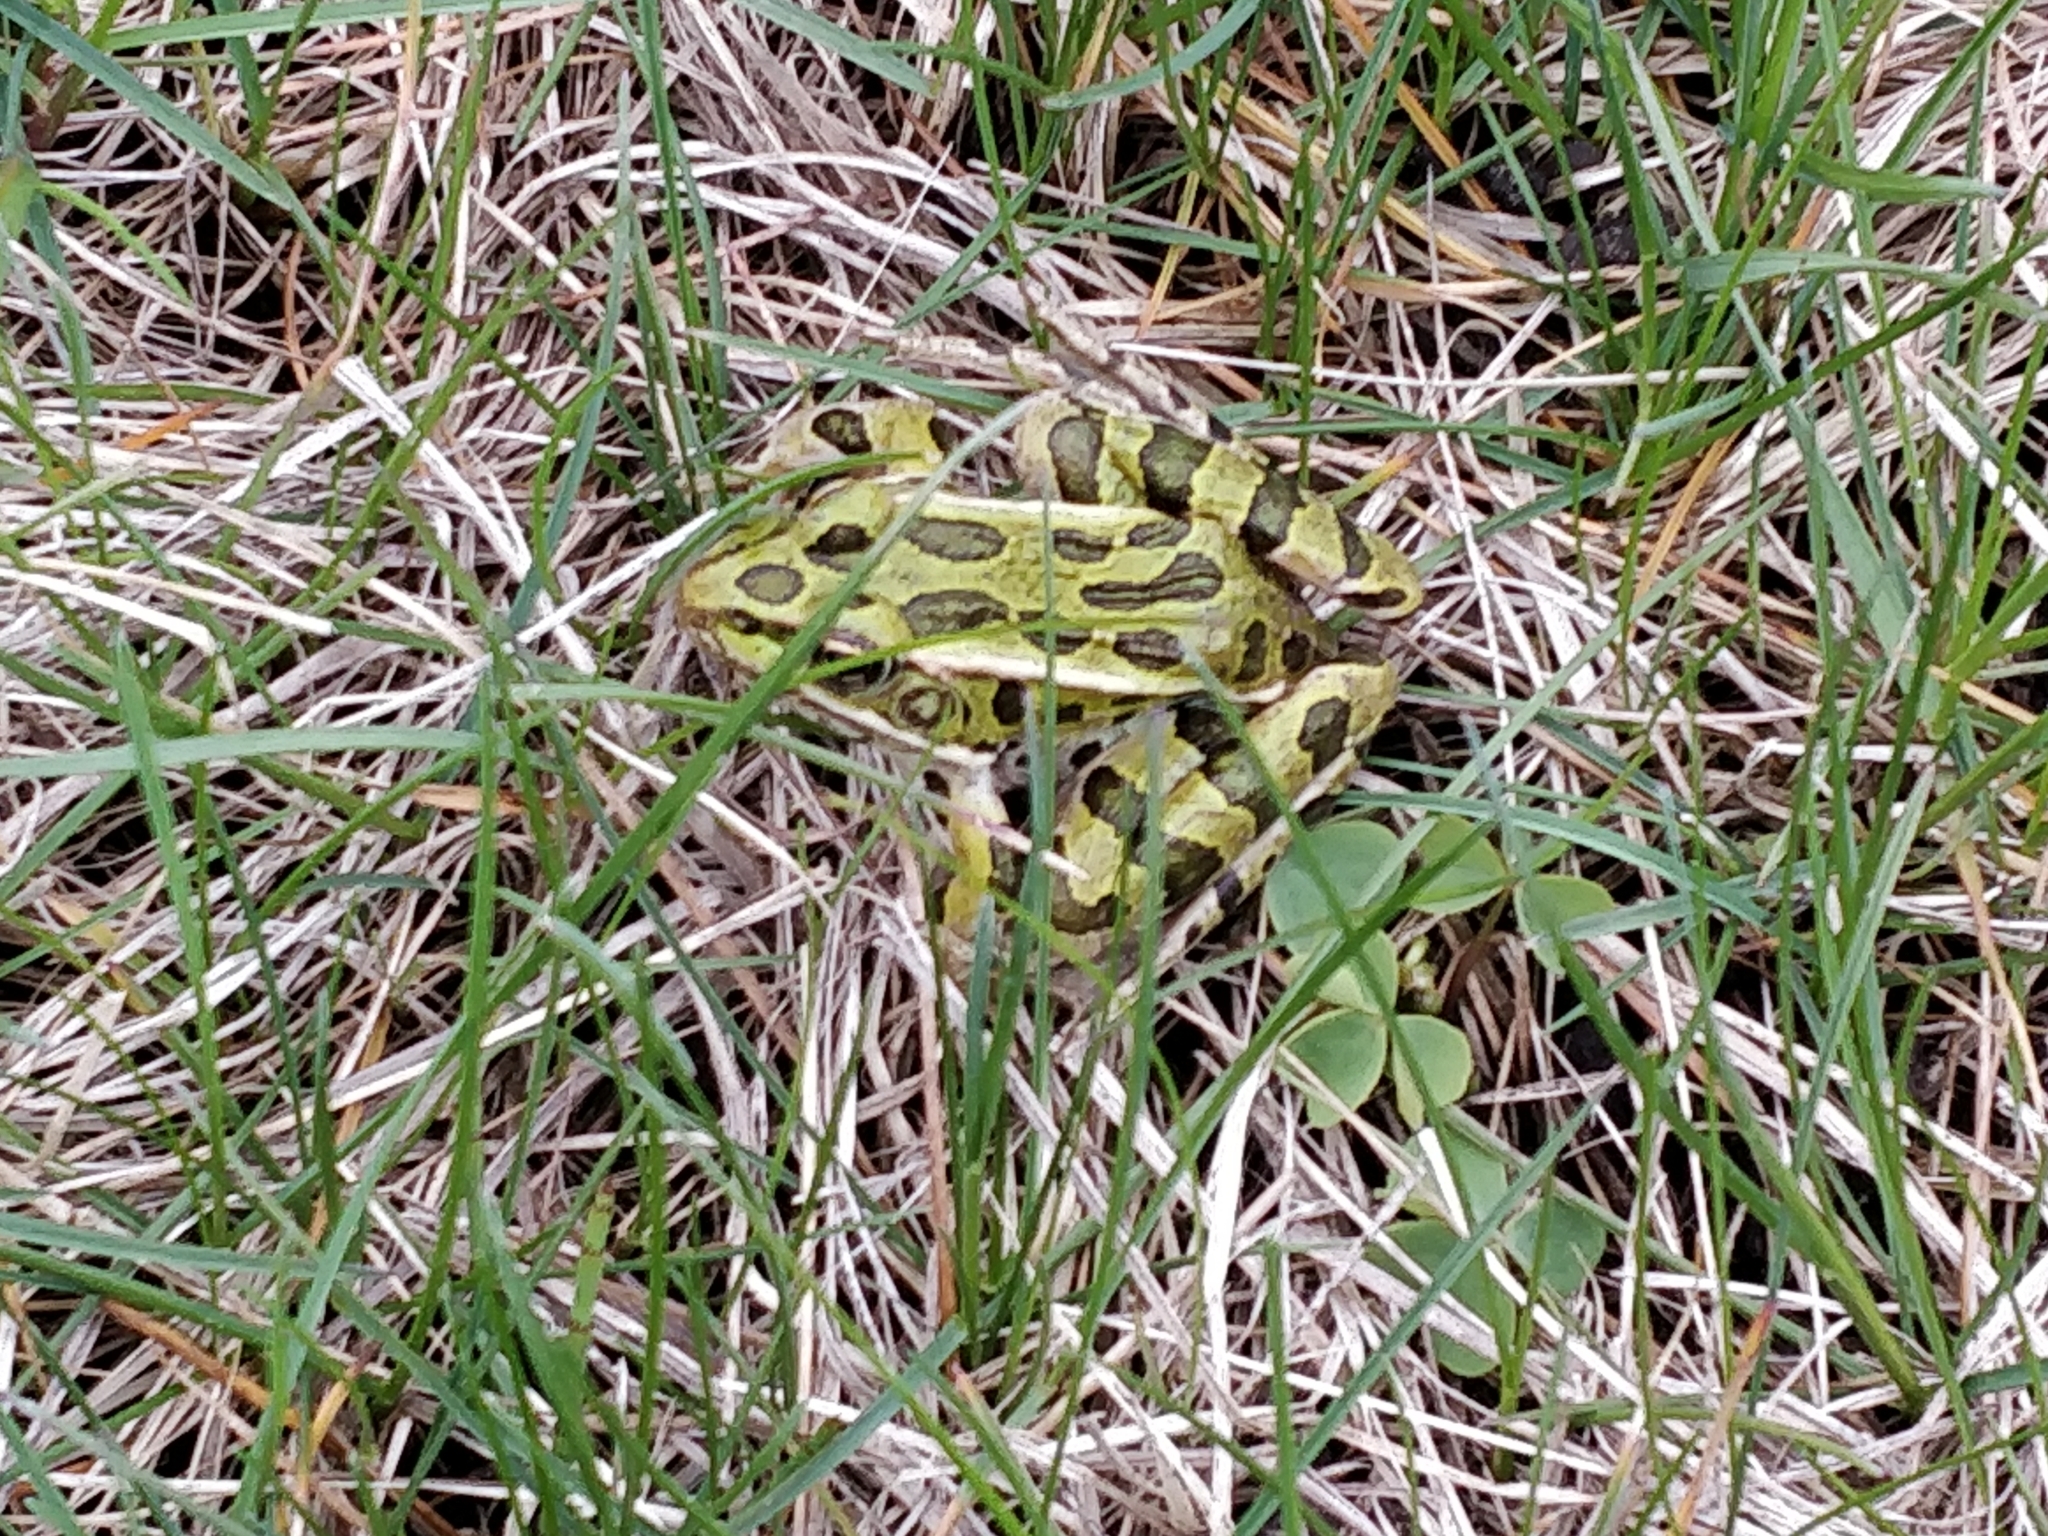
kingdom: Animalia
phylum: Chordata
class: Amphibia
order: Anura
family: Ranidae
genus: Lithobates
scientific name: Lithobates pipiens
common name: Northern leopard frog
